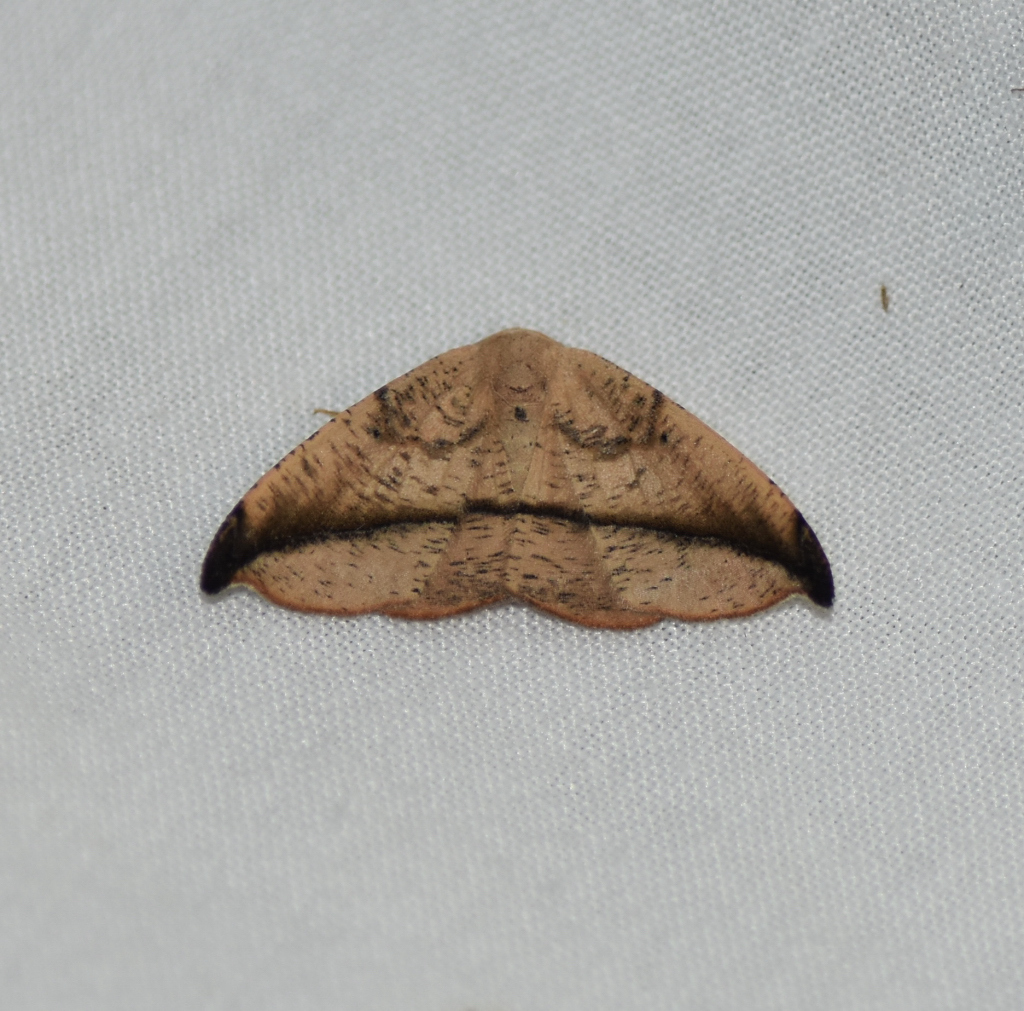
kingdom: Animalia
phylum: Arthropoda
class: Insecta
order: Lepidoptera
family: Geometridae
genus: Patalene
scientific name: Patalene olyzonaria
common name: Juniper geometer moth
